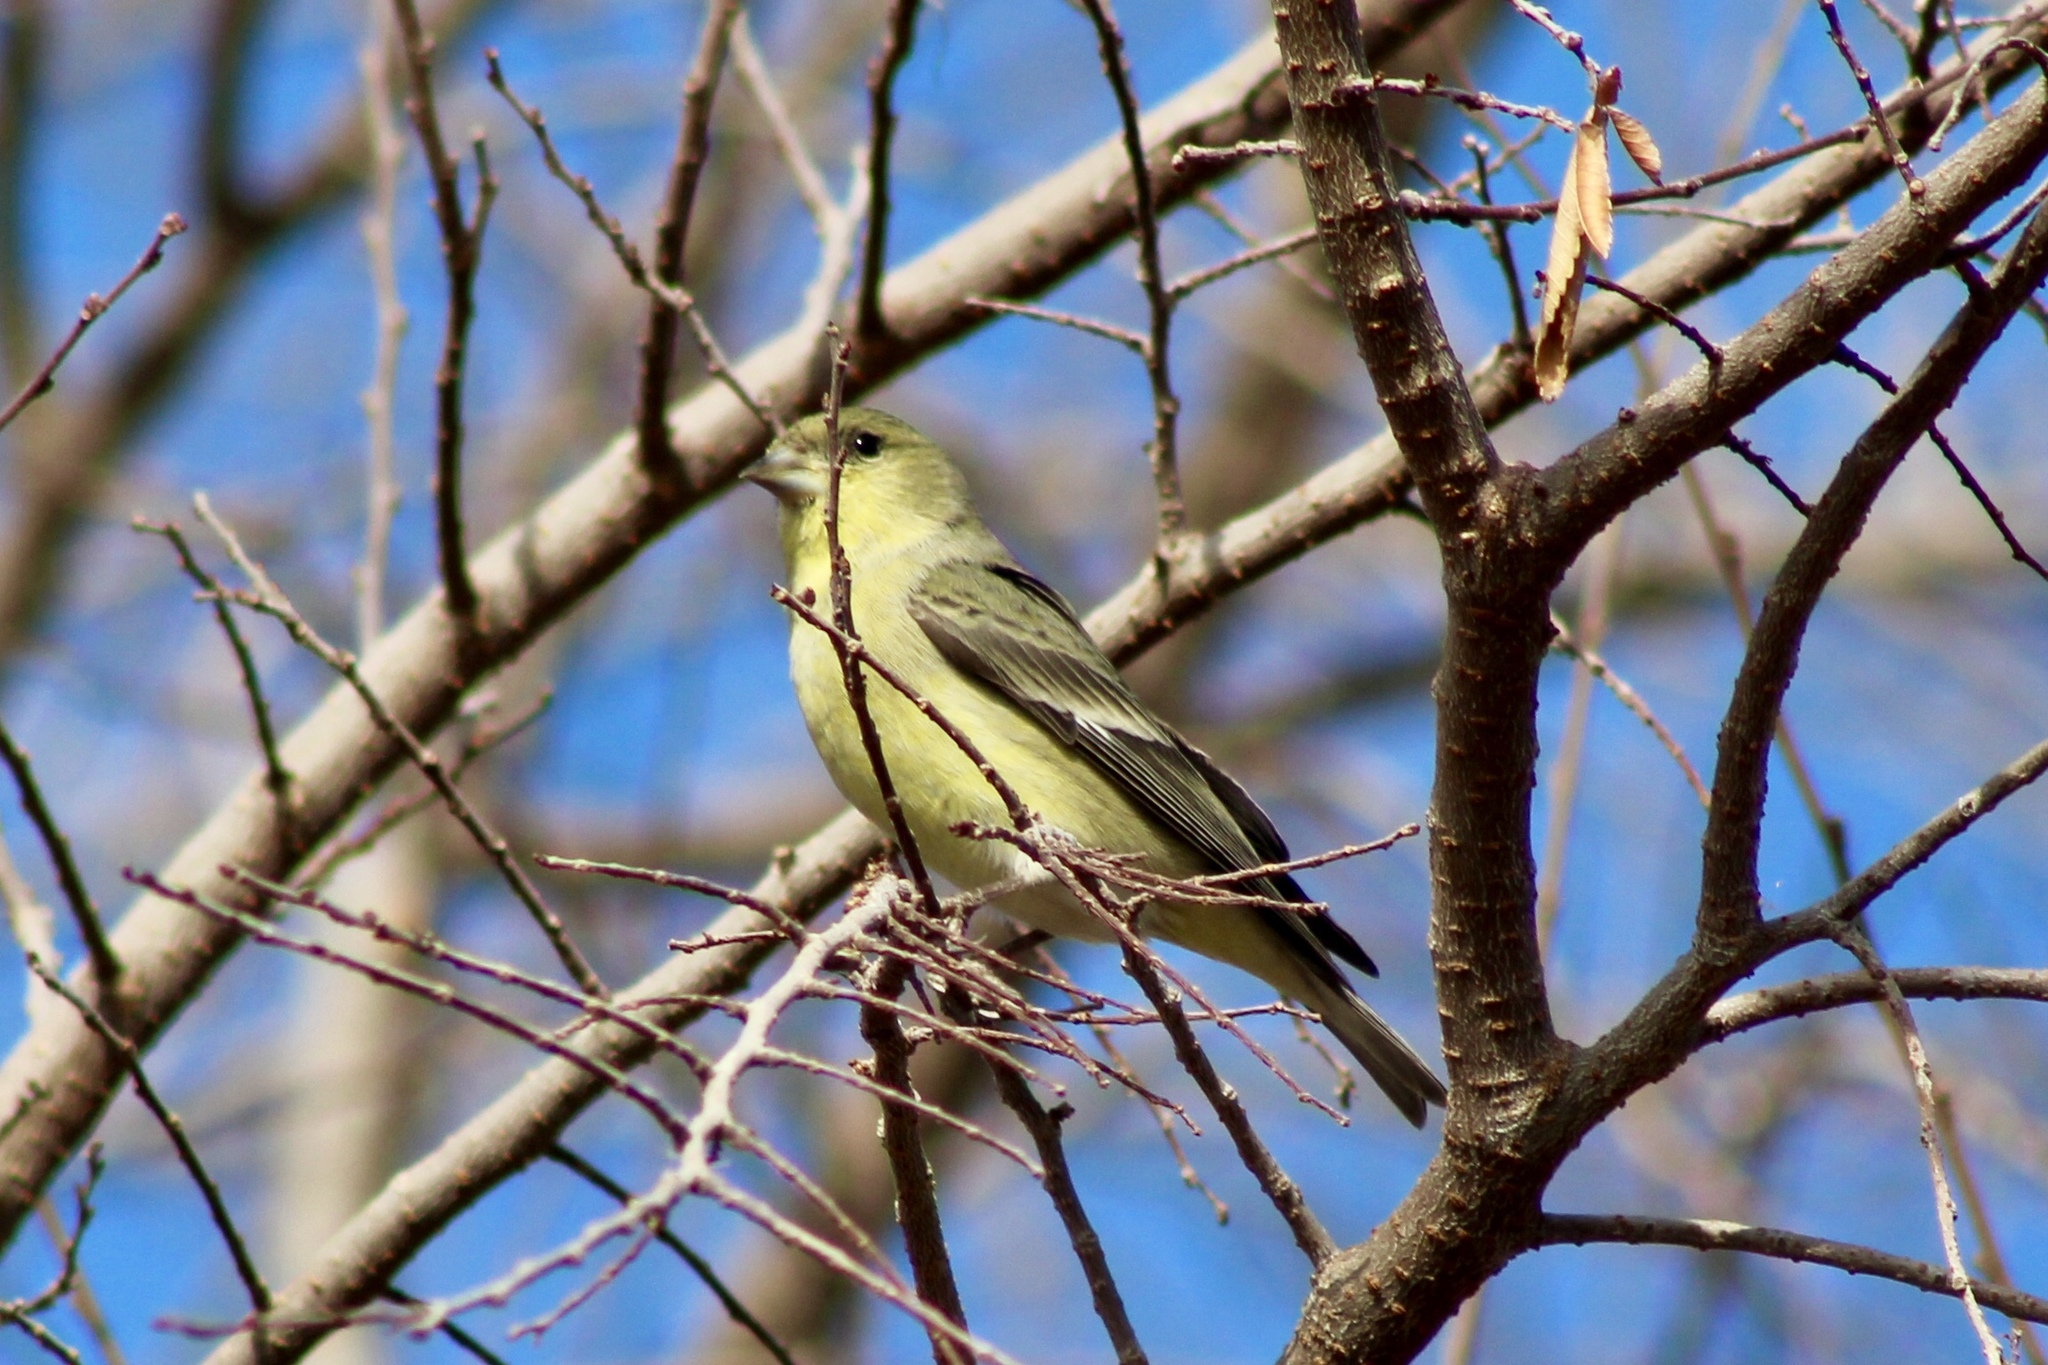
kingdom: Animalia
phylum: Chordata
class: Aves
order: Passeriformes
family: Fringillidae
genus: Spinus
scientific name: Spinus psaltria
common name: Lesser goldfinch
